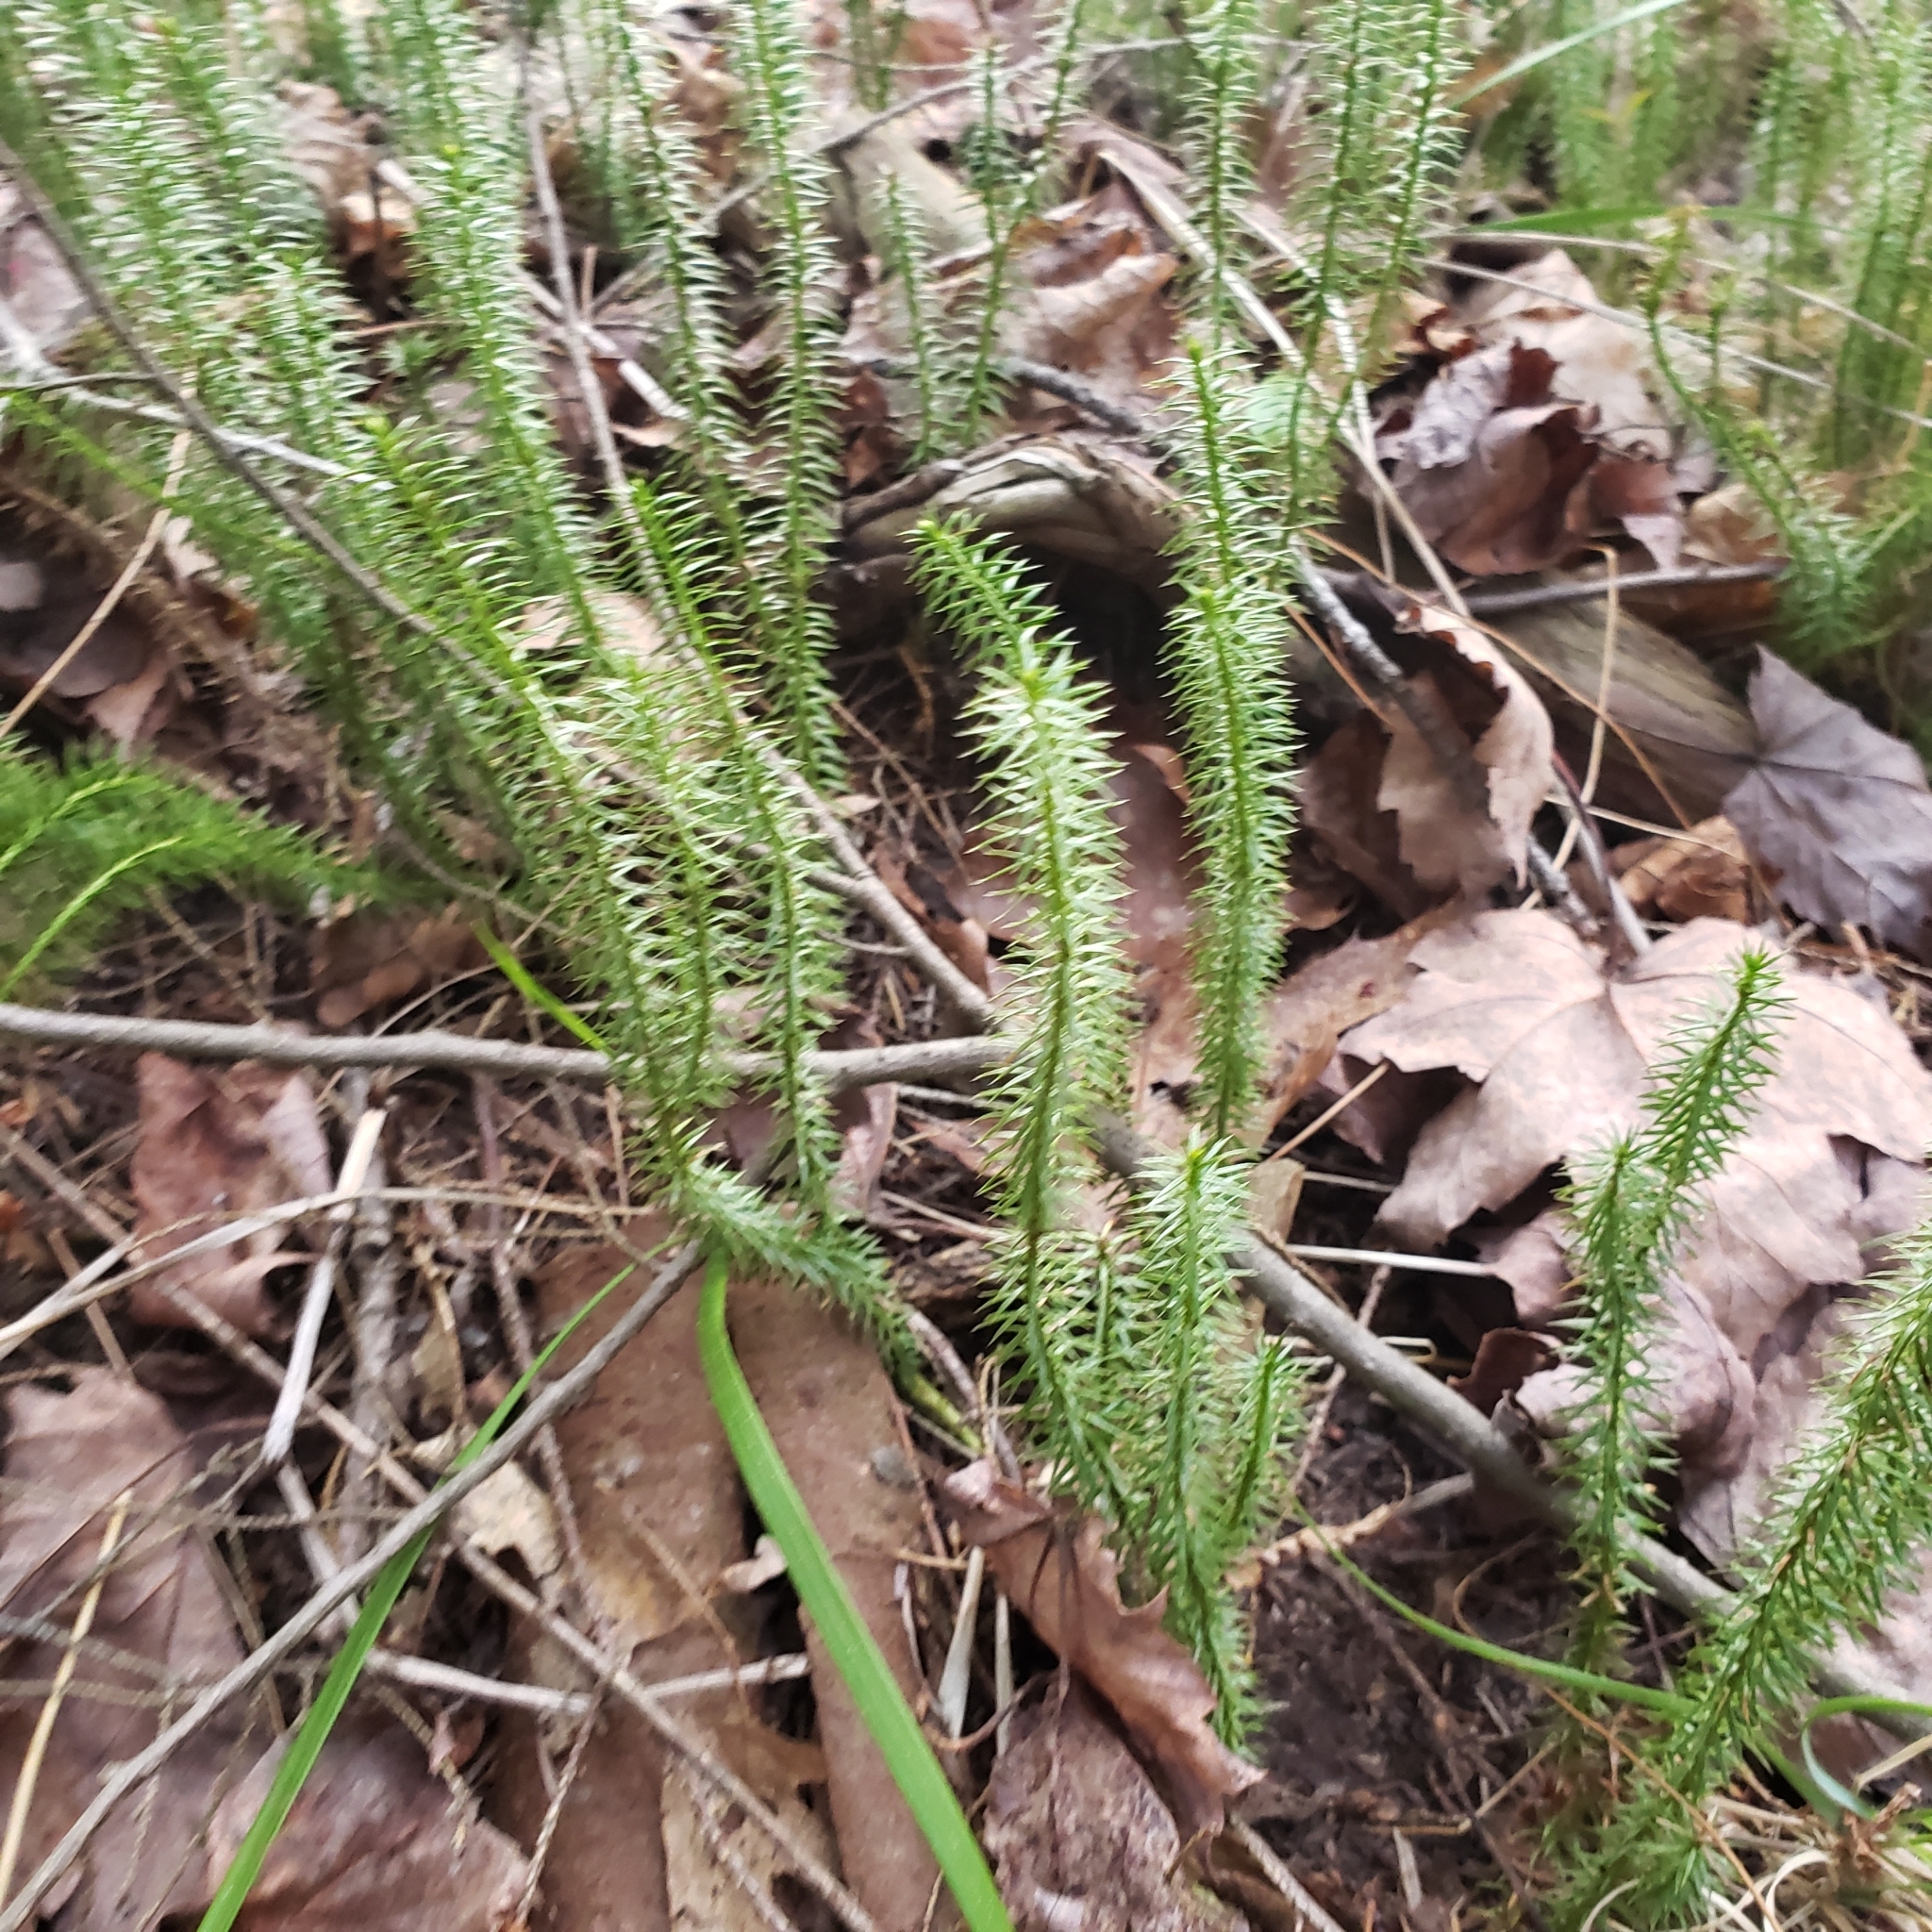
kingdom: Plantae
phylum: Tracheophyta
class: Lycopodiopsida
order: Lycopodiales
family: Lycopodiaceae
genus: Spinulum
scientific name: Spinulum annotinum
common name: Interrupted club-moss
